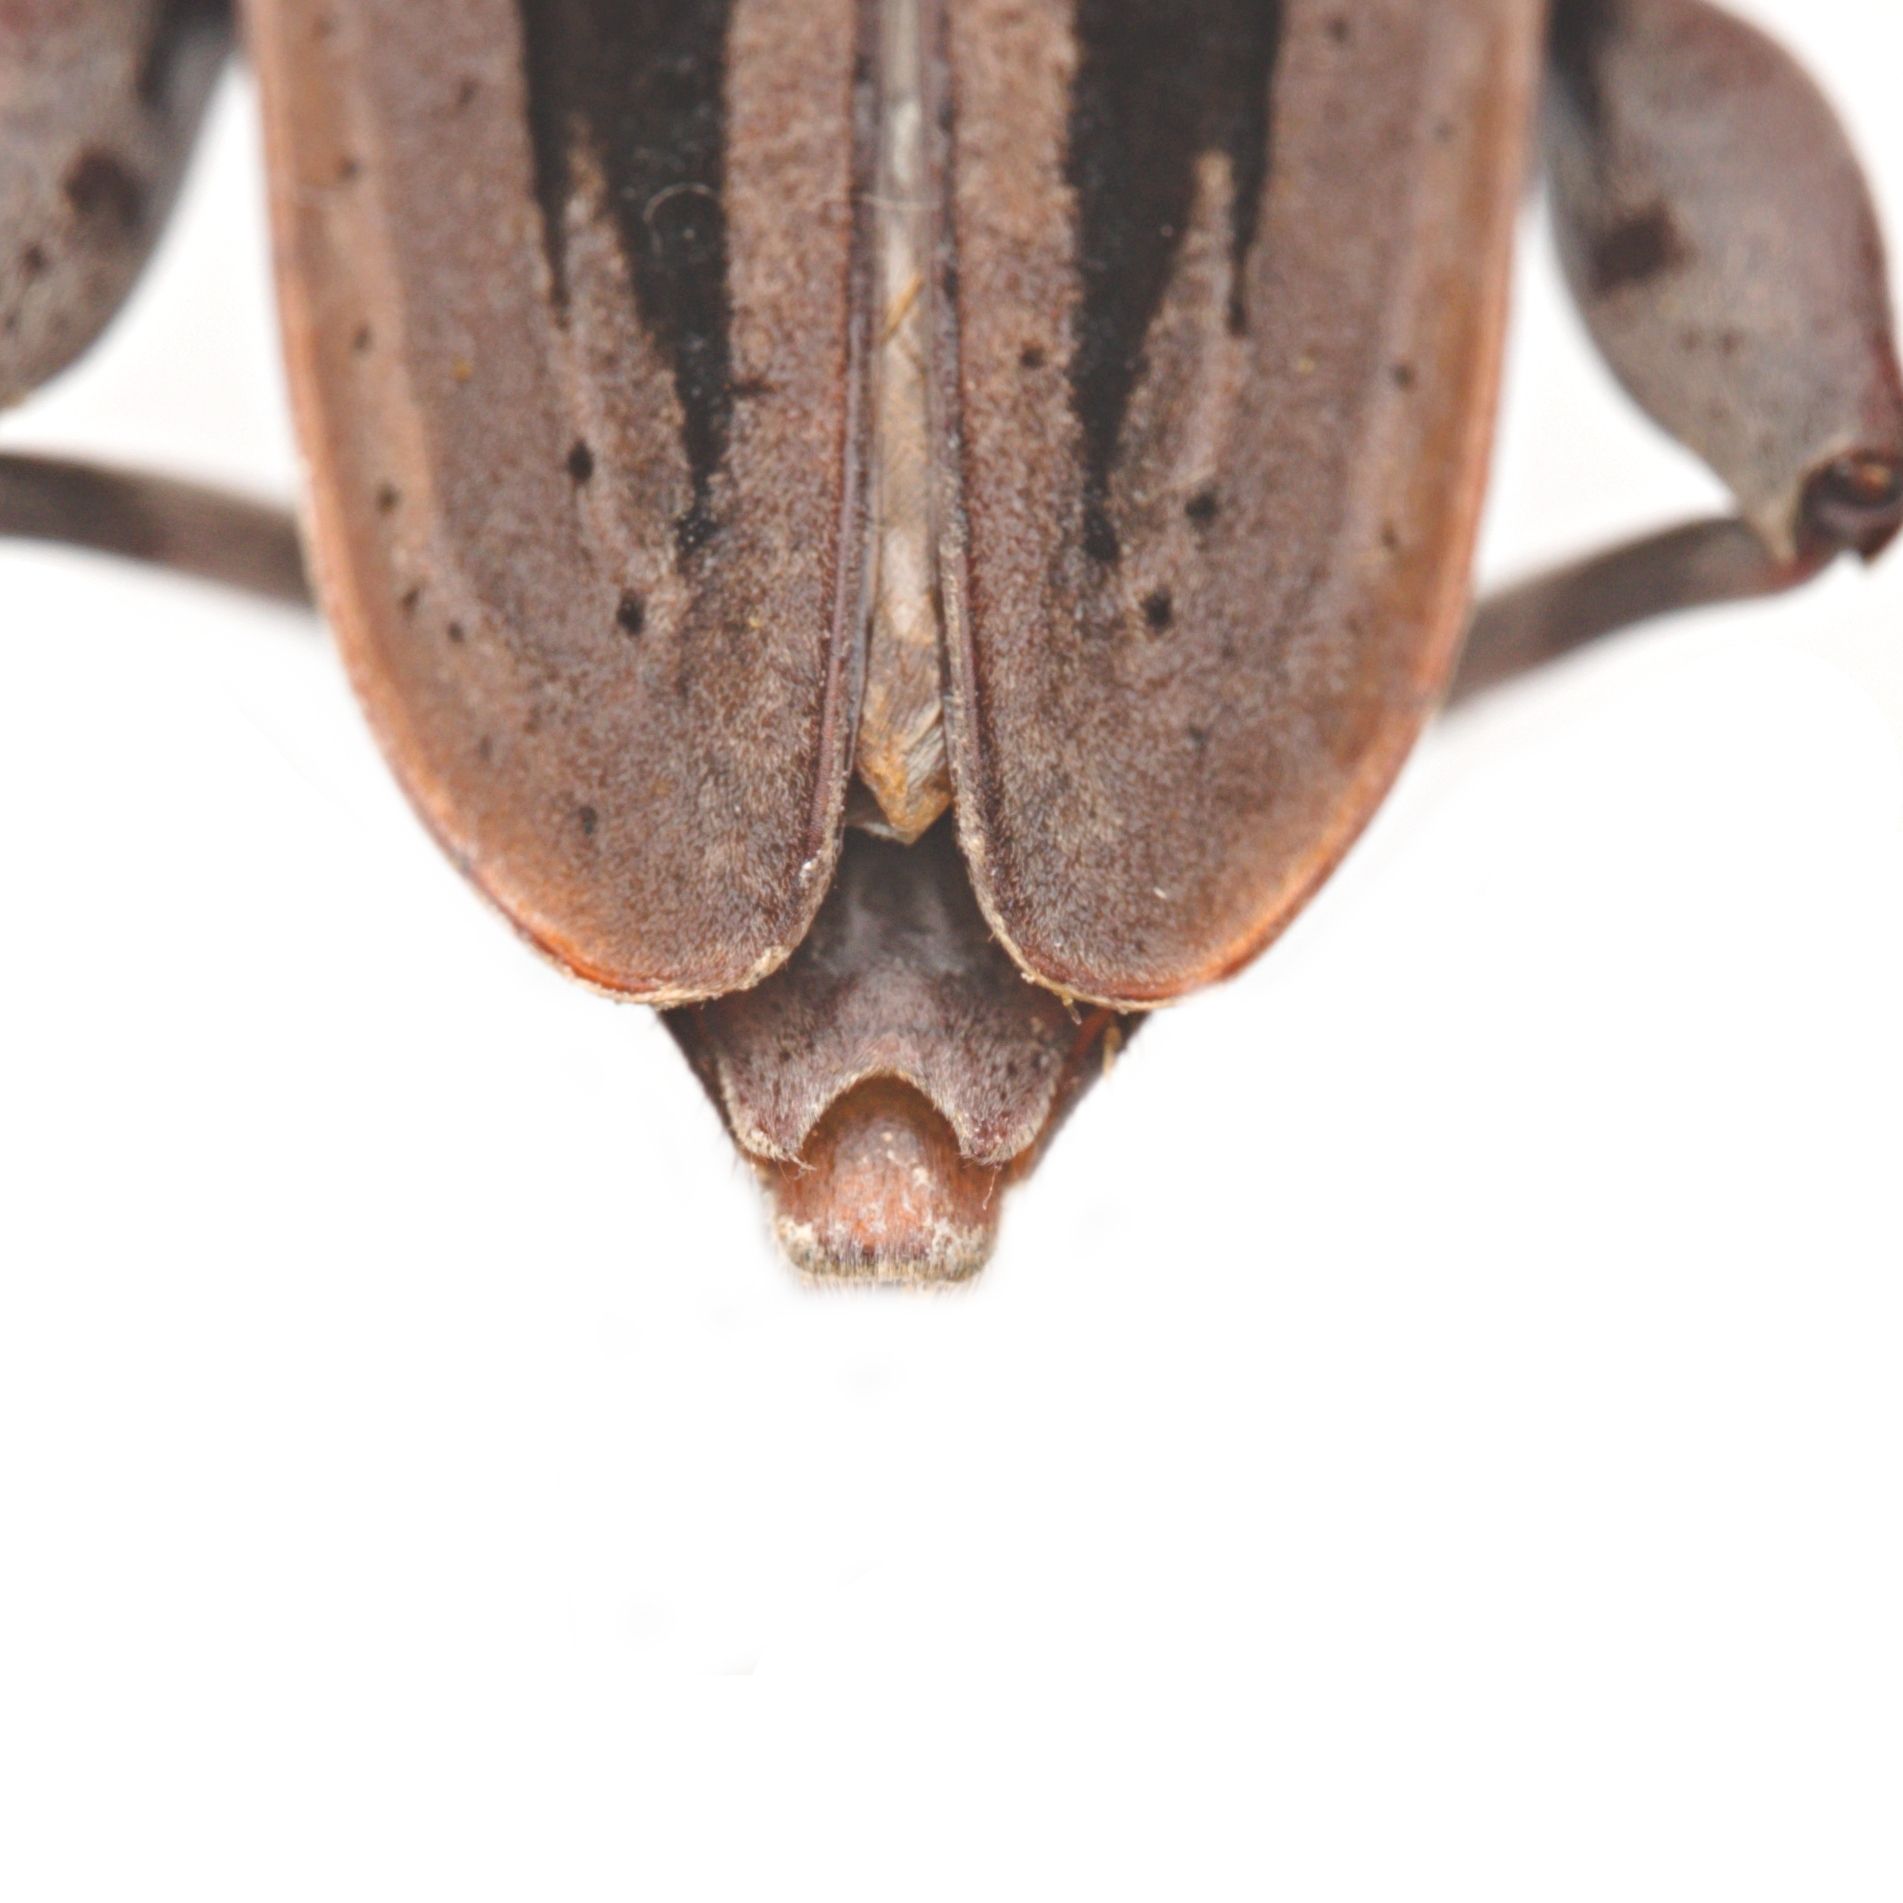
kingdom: Animalia
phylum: Arthropoda
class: Insecta
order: Coleoptera
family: Cerambycidae
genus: Acanthocinus
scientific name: Acanthocinus nodosus
